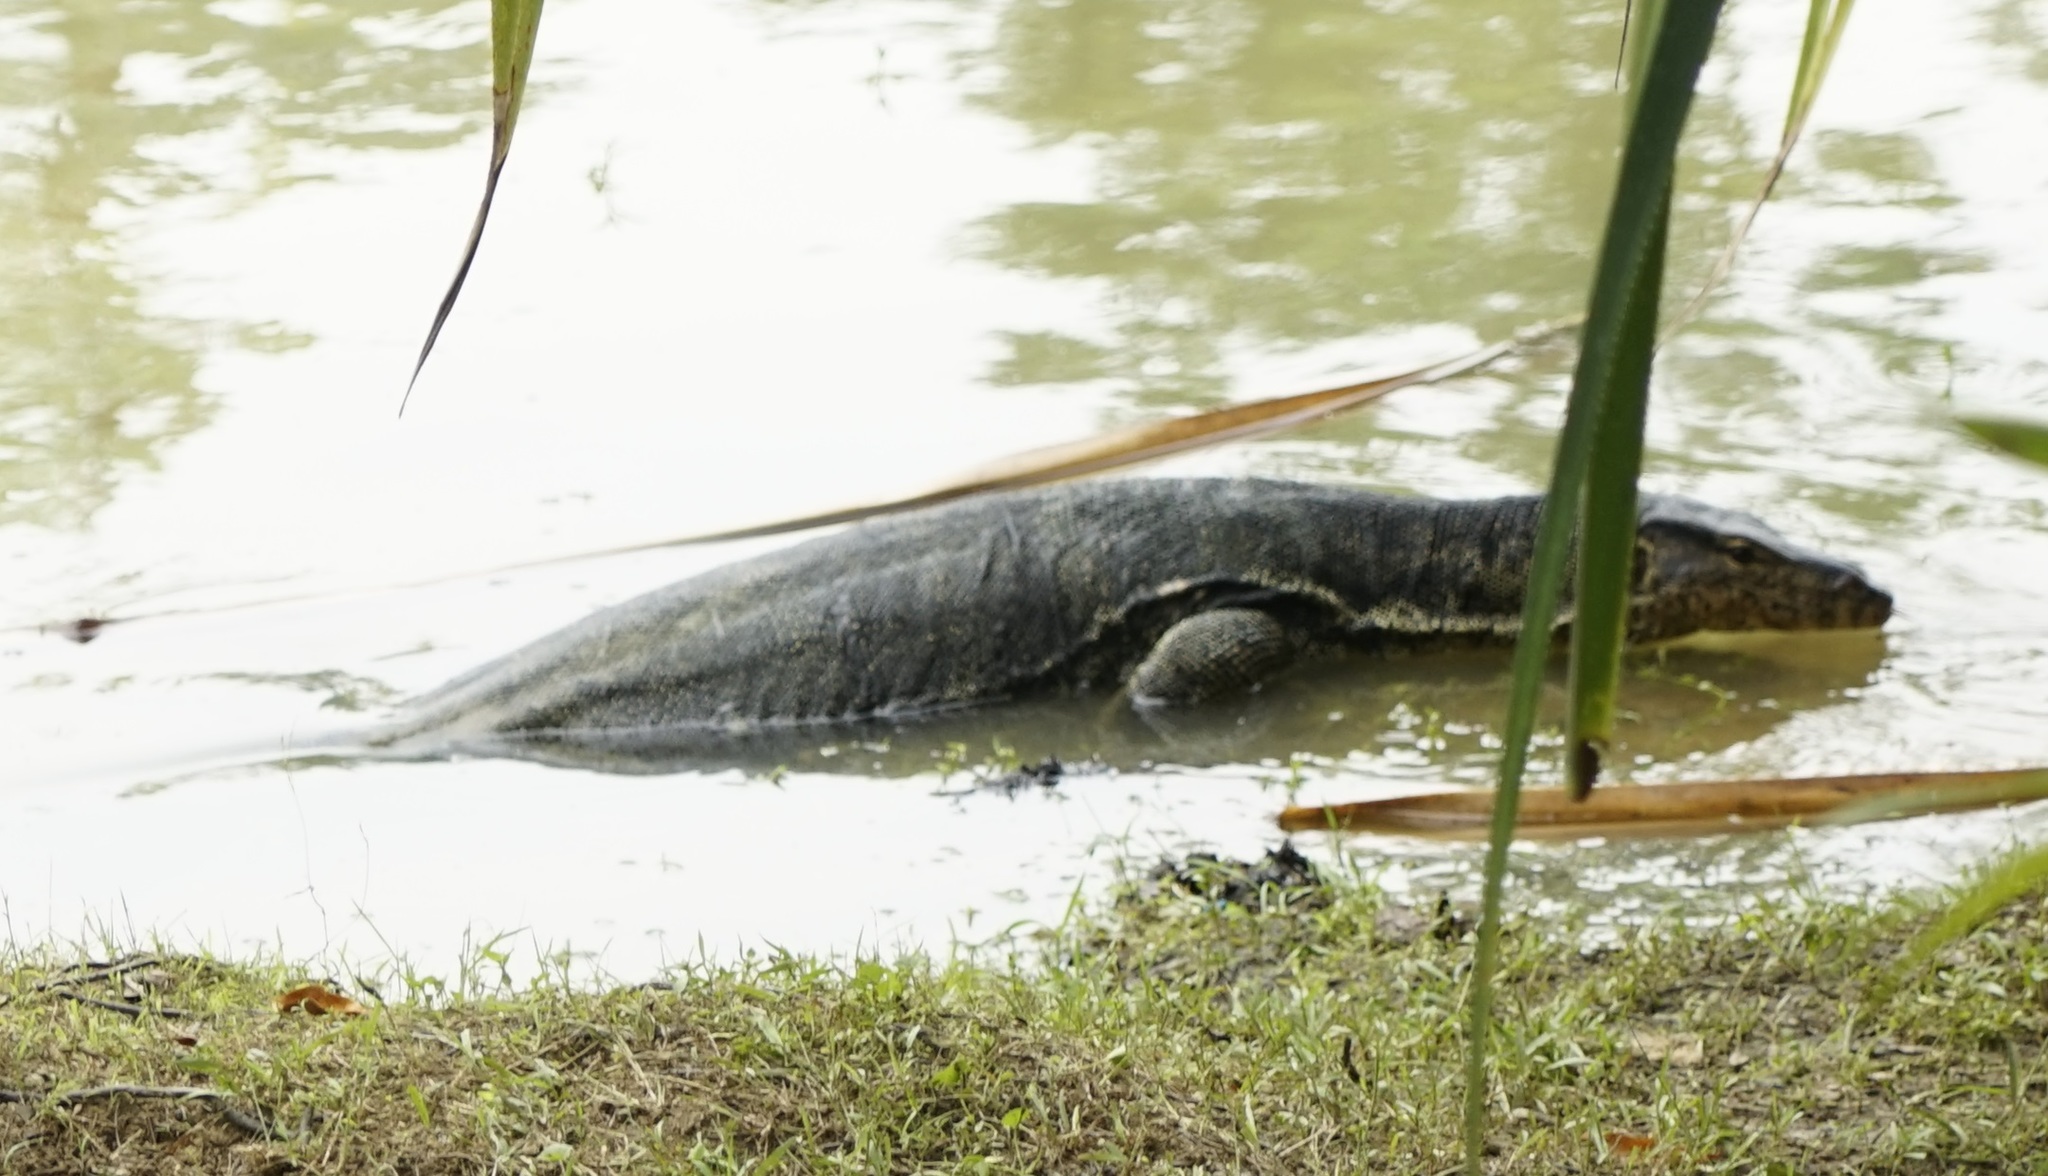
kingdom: Animalia
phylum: Chordata
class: Squamata
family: Varanidae
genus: Varanus
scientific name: Varanus salvator
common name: Common water monitor
